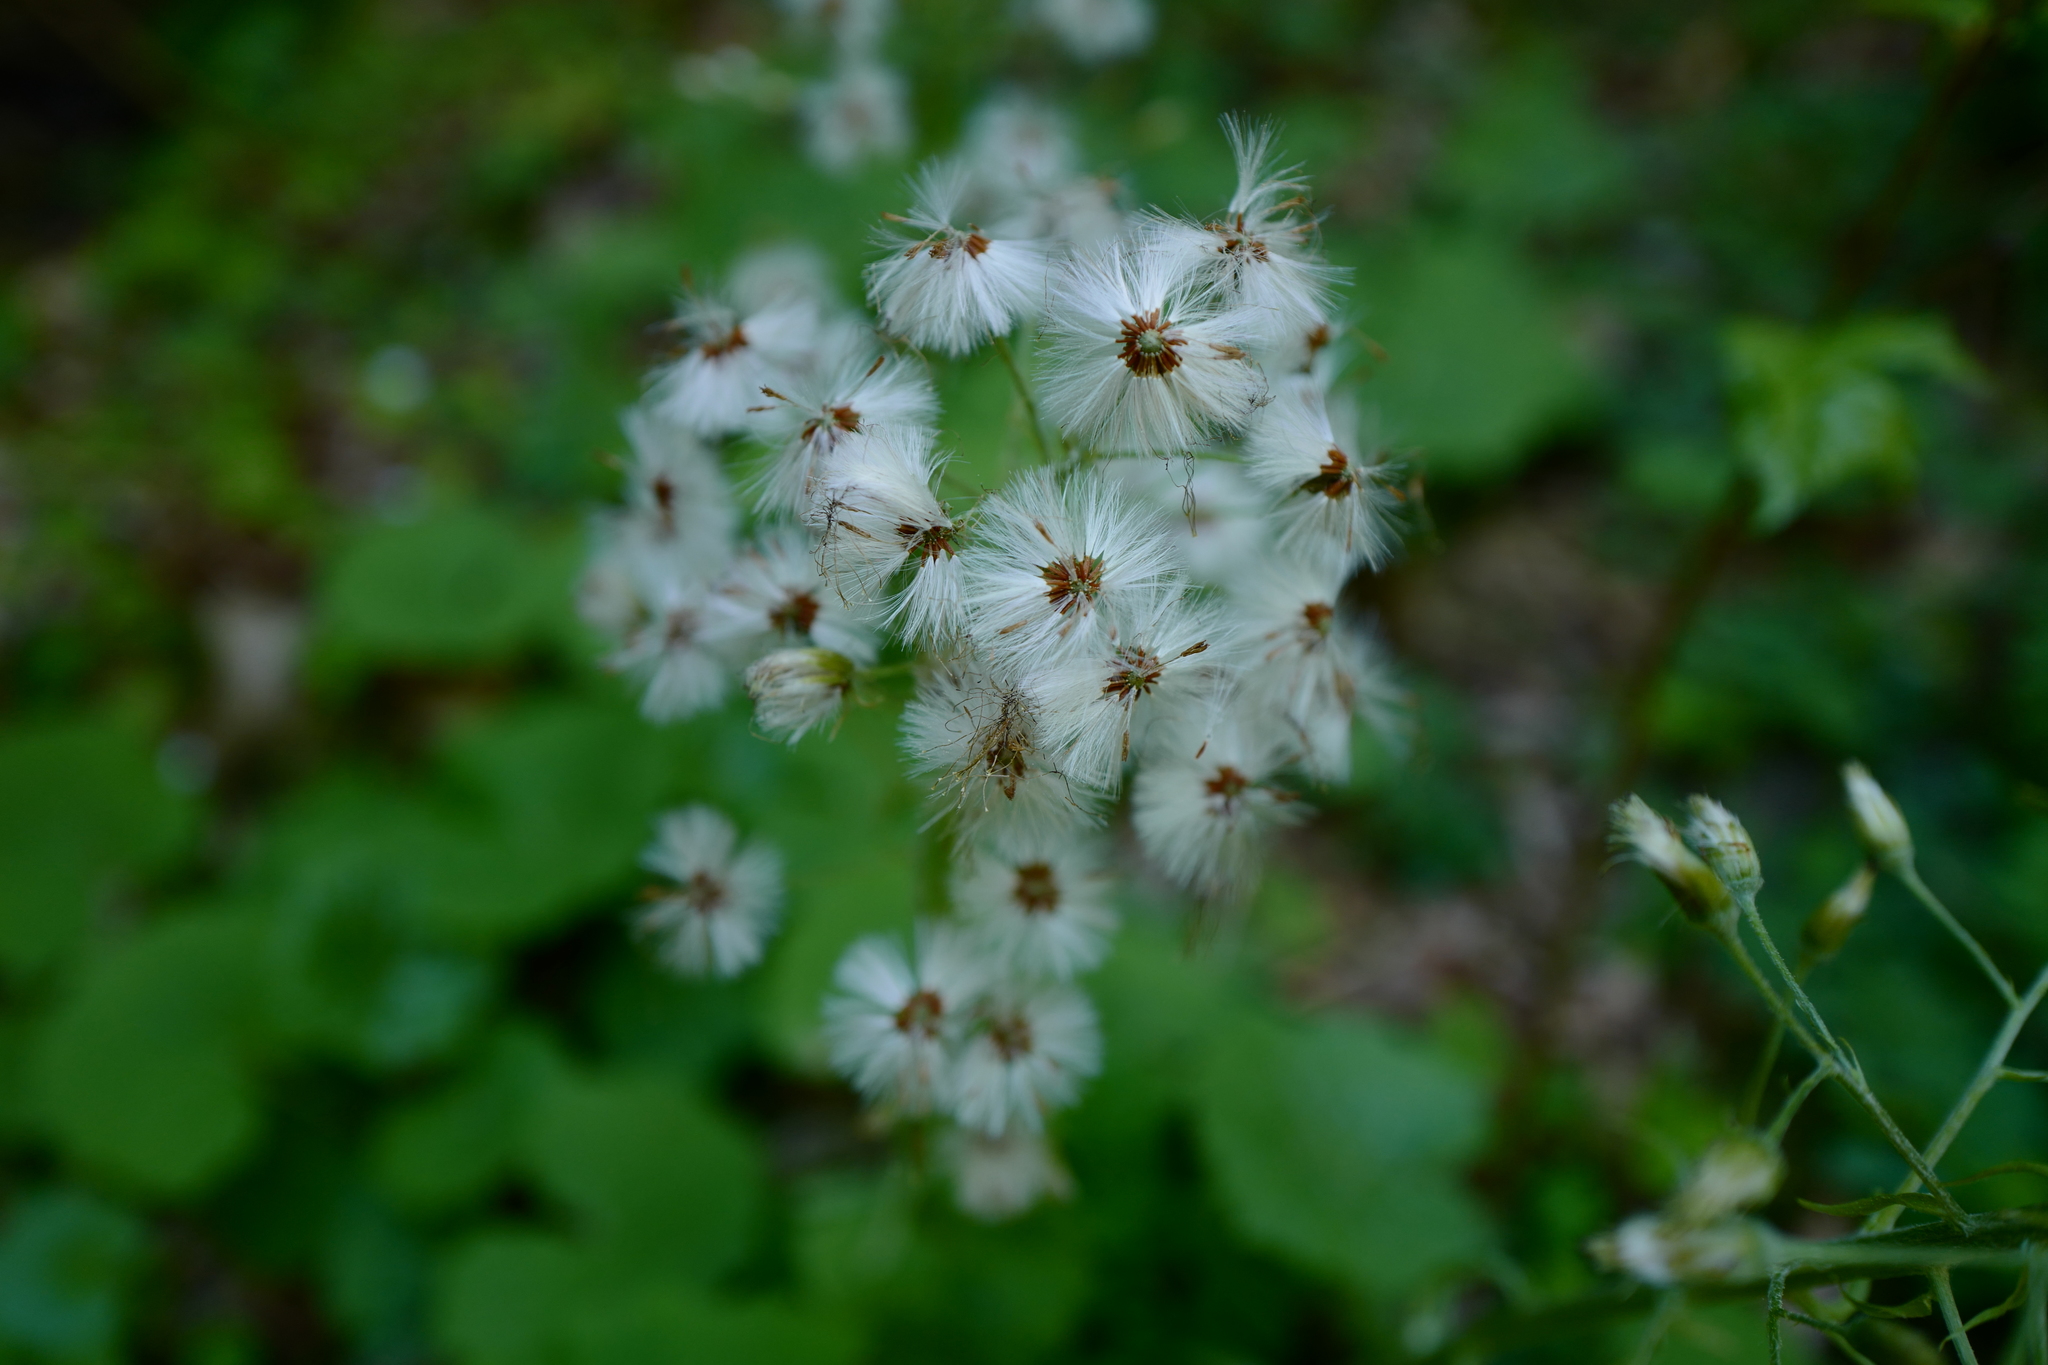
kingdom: Plantae
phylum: Tracheophyta
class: Magnoliopsida
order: Asterales
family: Asteraceae
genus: Petasites
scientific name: Petasites albus
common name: White butterbur
